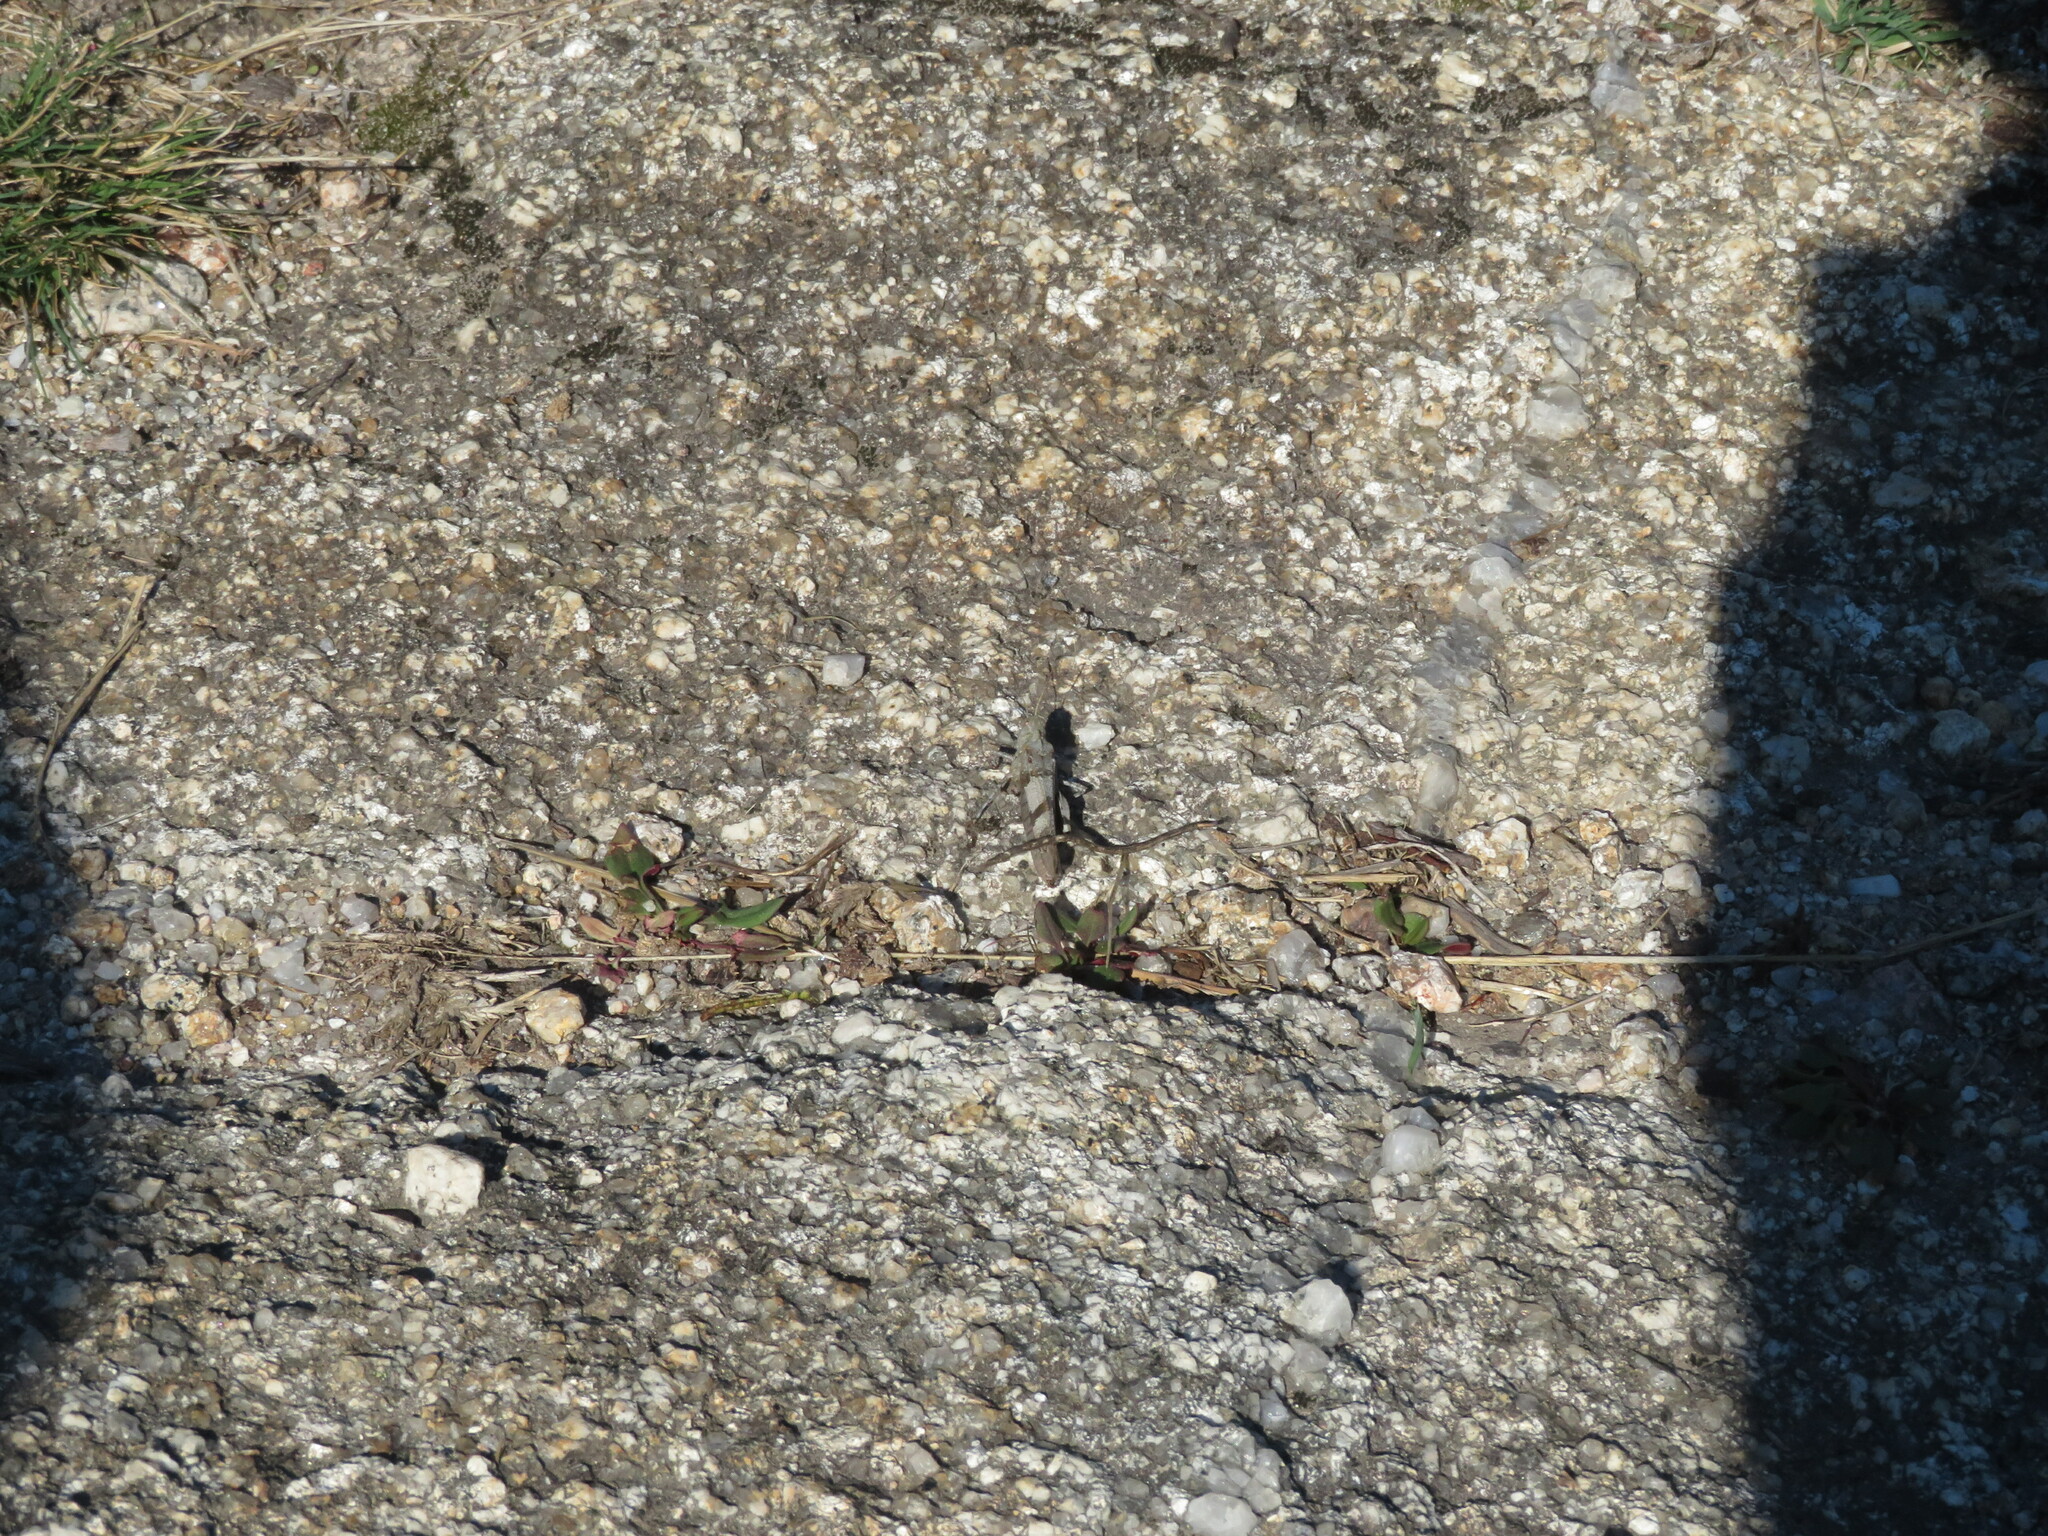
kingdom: Animalia
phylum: Arthropoda
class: Insecta
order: Orthoptera
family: Acrididae
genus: Oedipoda
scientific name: Oedipoda caerulescens
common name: Blue-winged grasshopper
